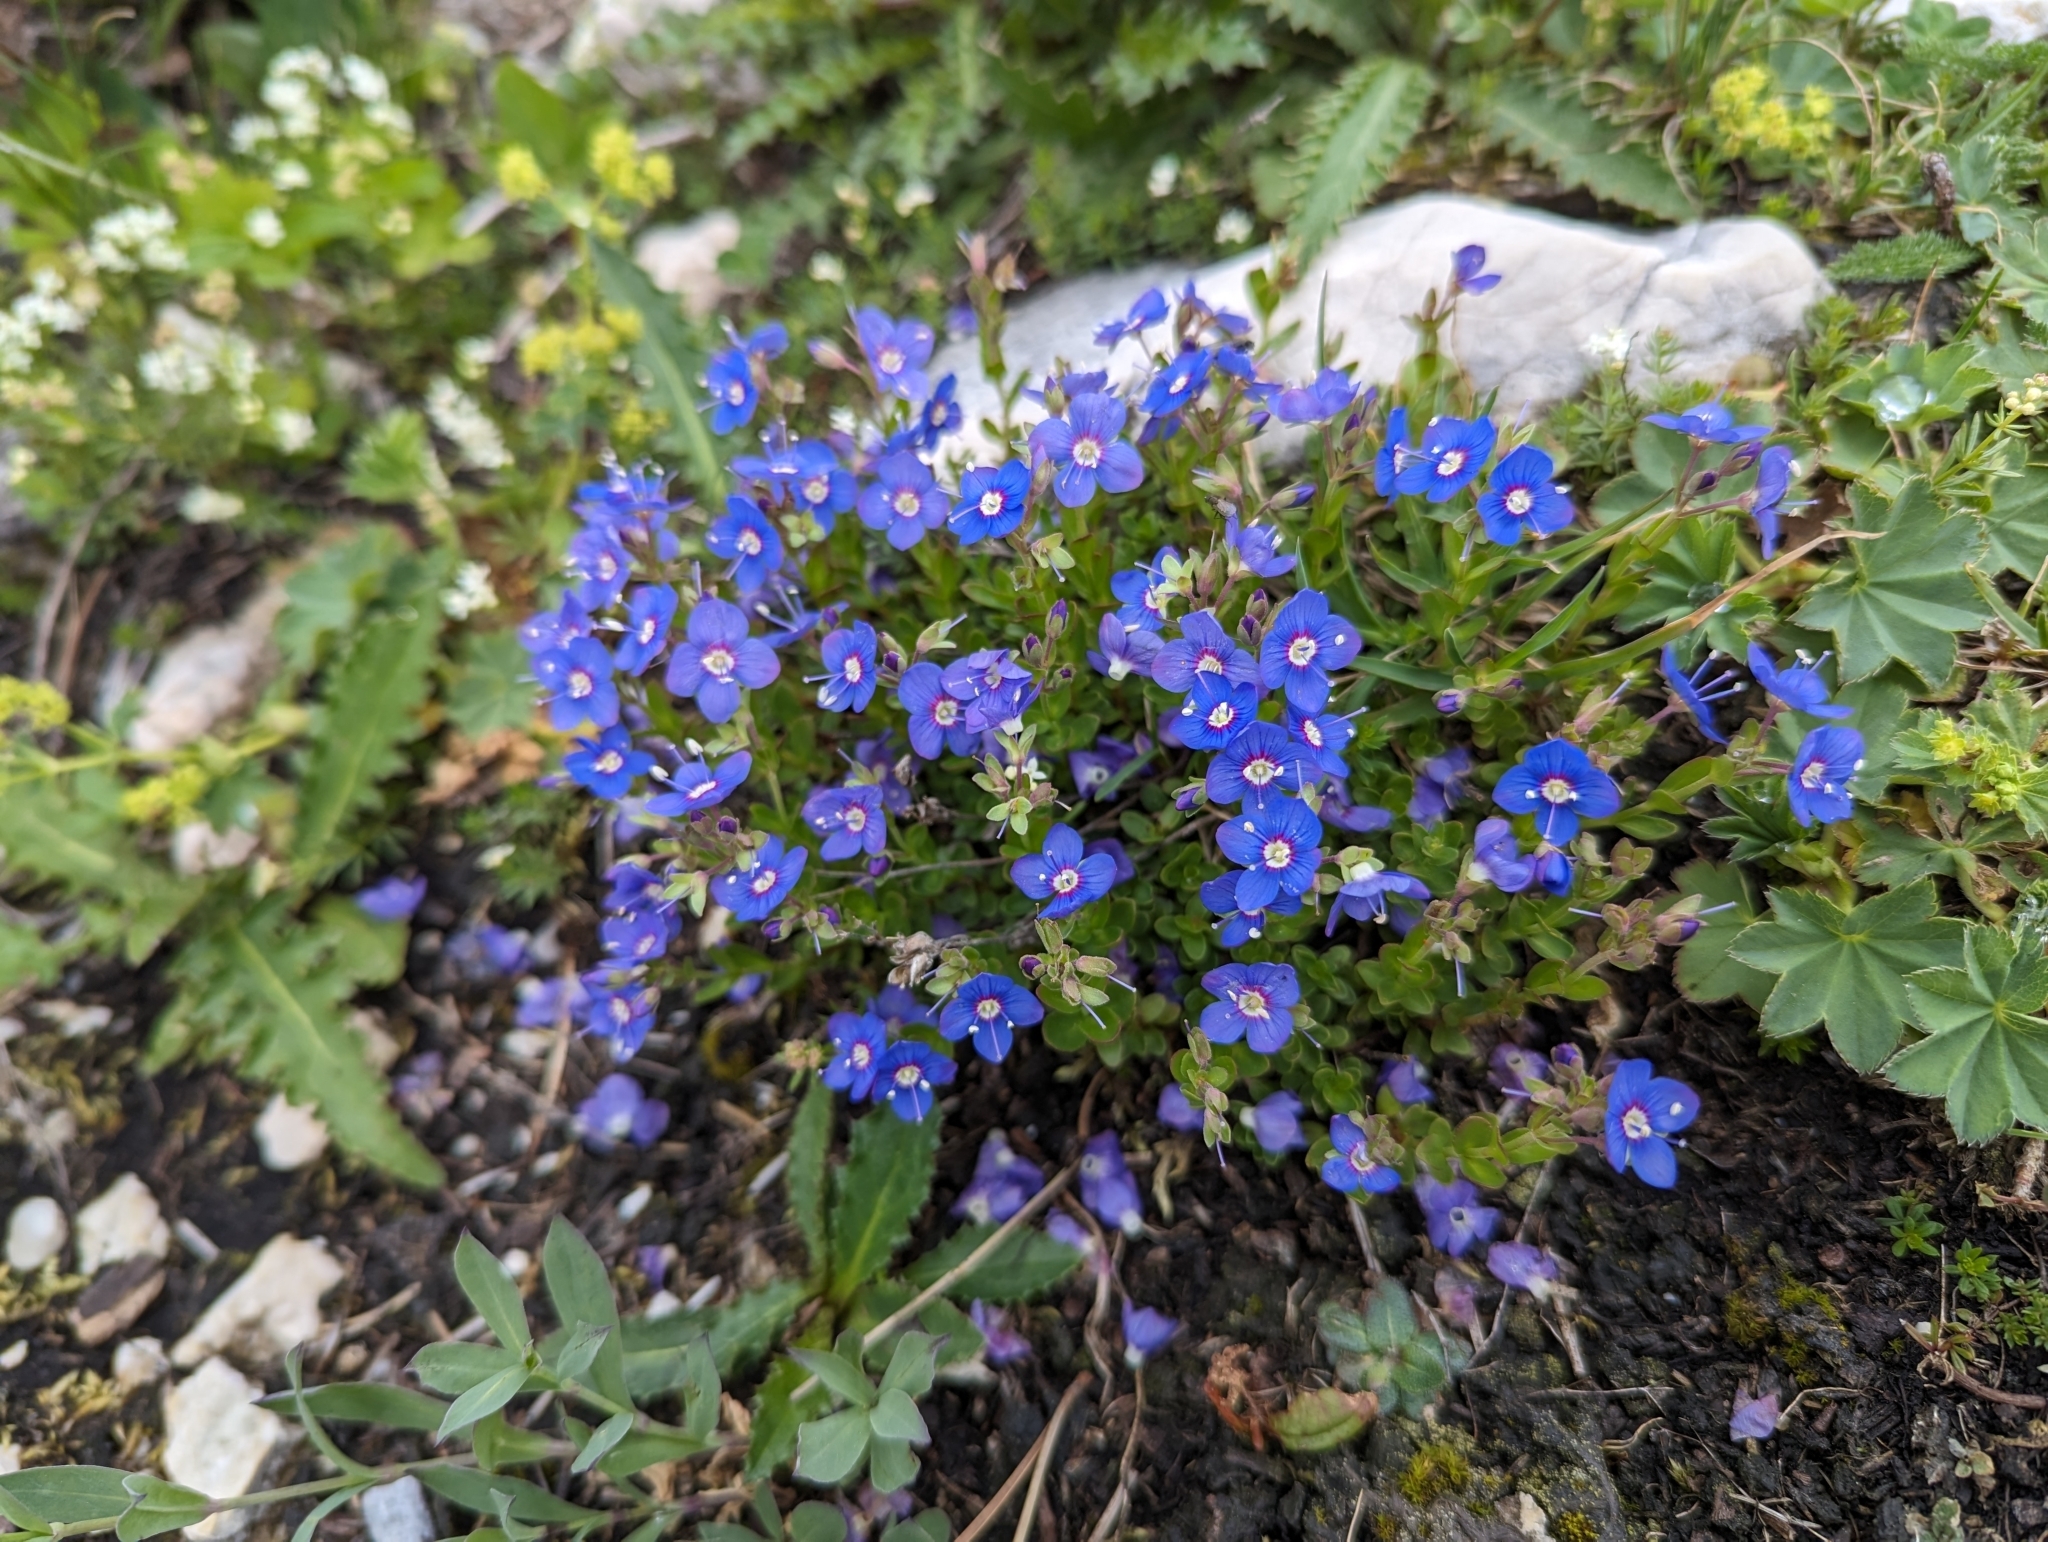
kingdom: Plantae
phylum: Tracheophyta
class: Magnoliopsida
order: Lamiales
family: Plantaginaceae
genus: Veronica
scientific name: Veronica fruticans
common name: Rock speedwell
